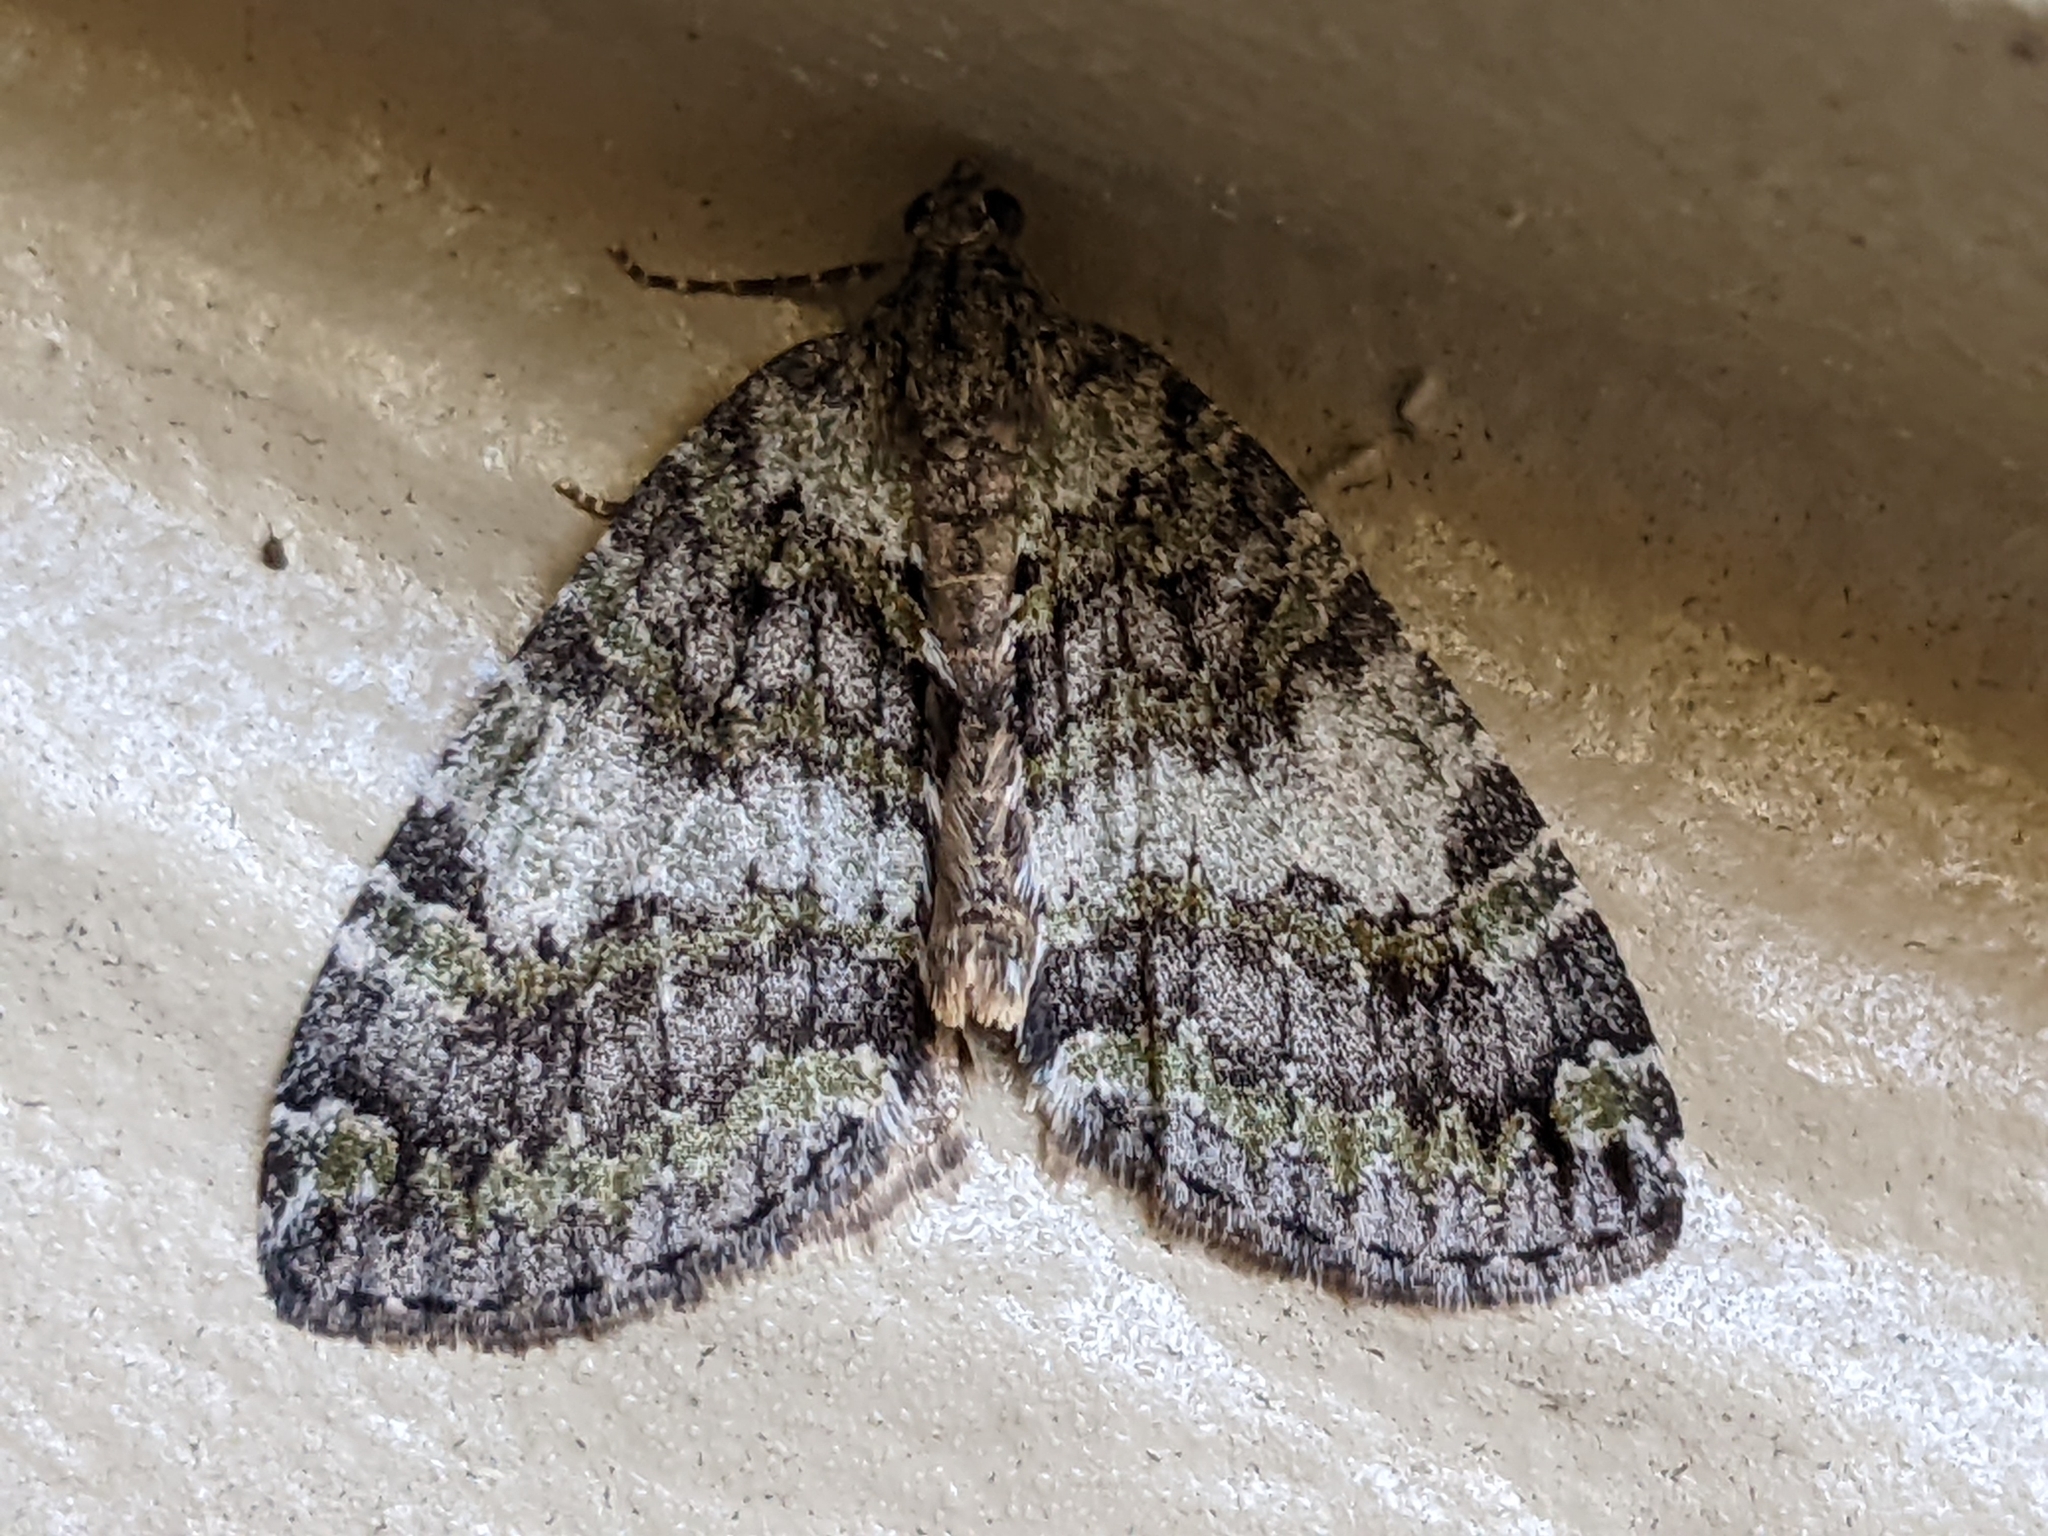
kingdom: Animalia
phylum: Arthropoda
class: Insecta
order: Lepidoptera
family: Geometridae
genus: Hydriomena
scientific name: Hydriomena nubilofasciata
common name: Oak winter highflier moth
